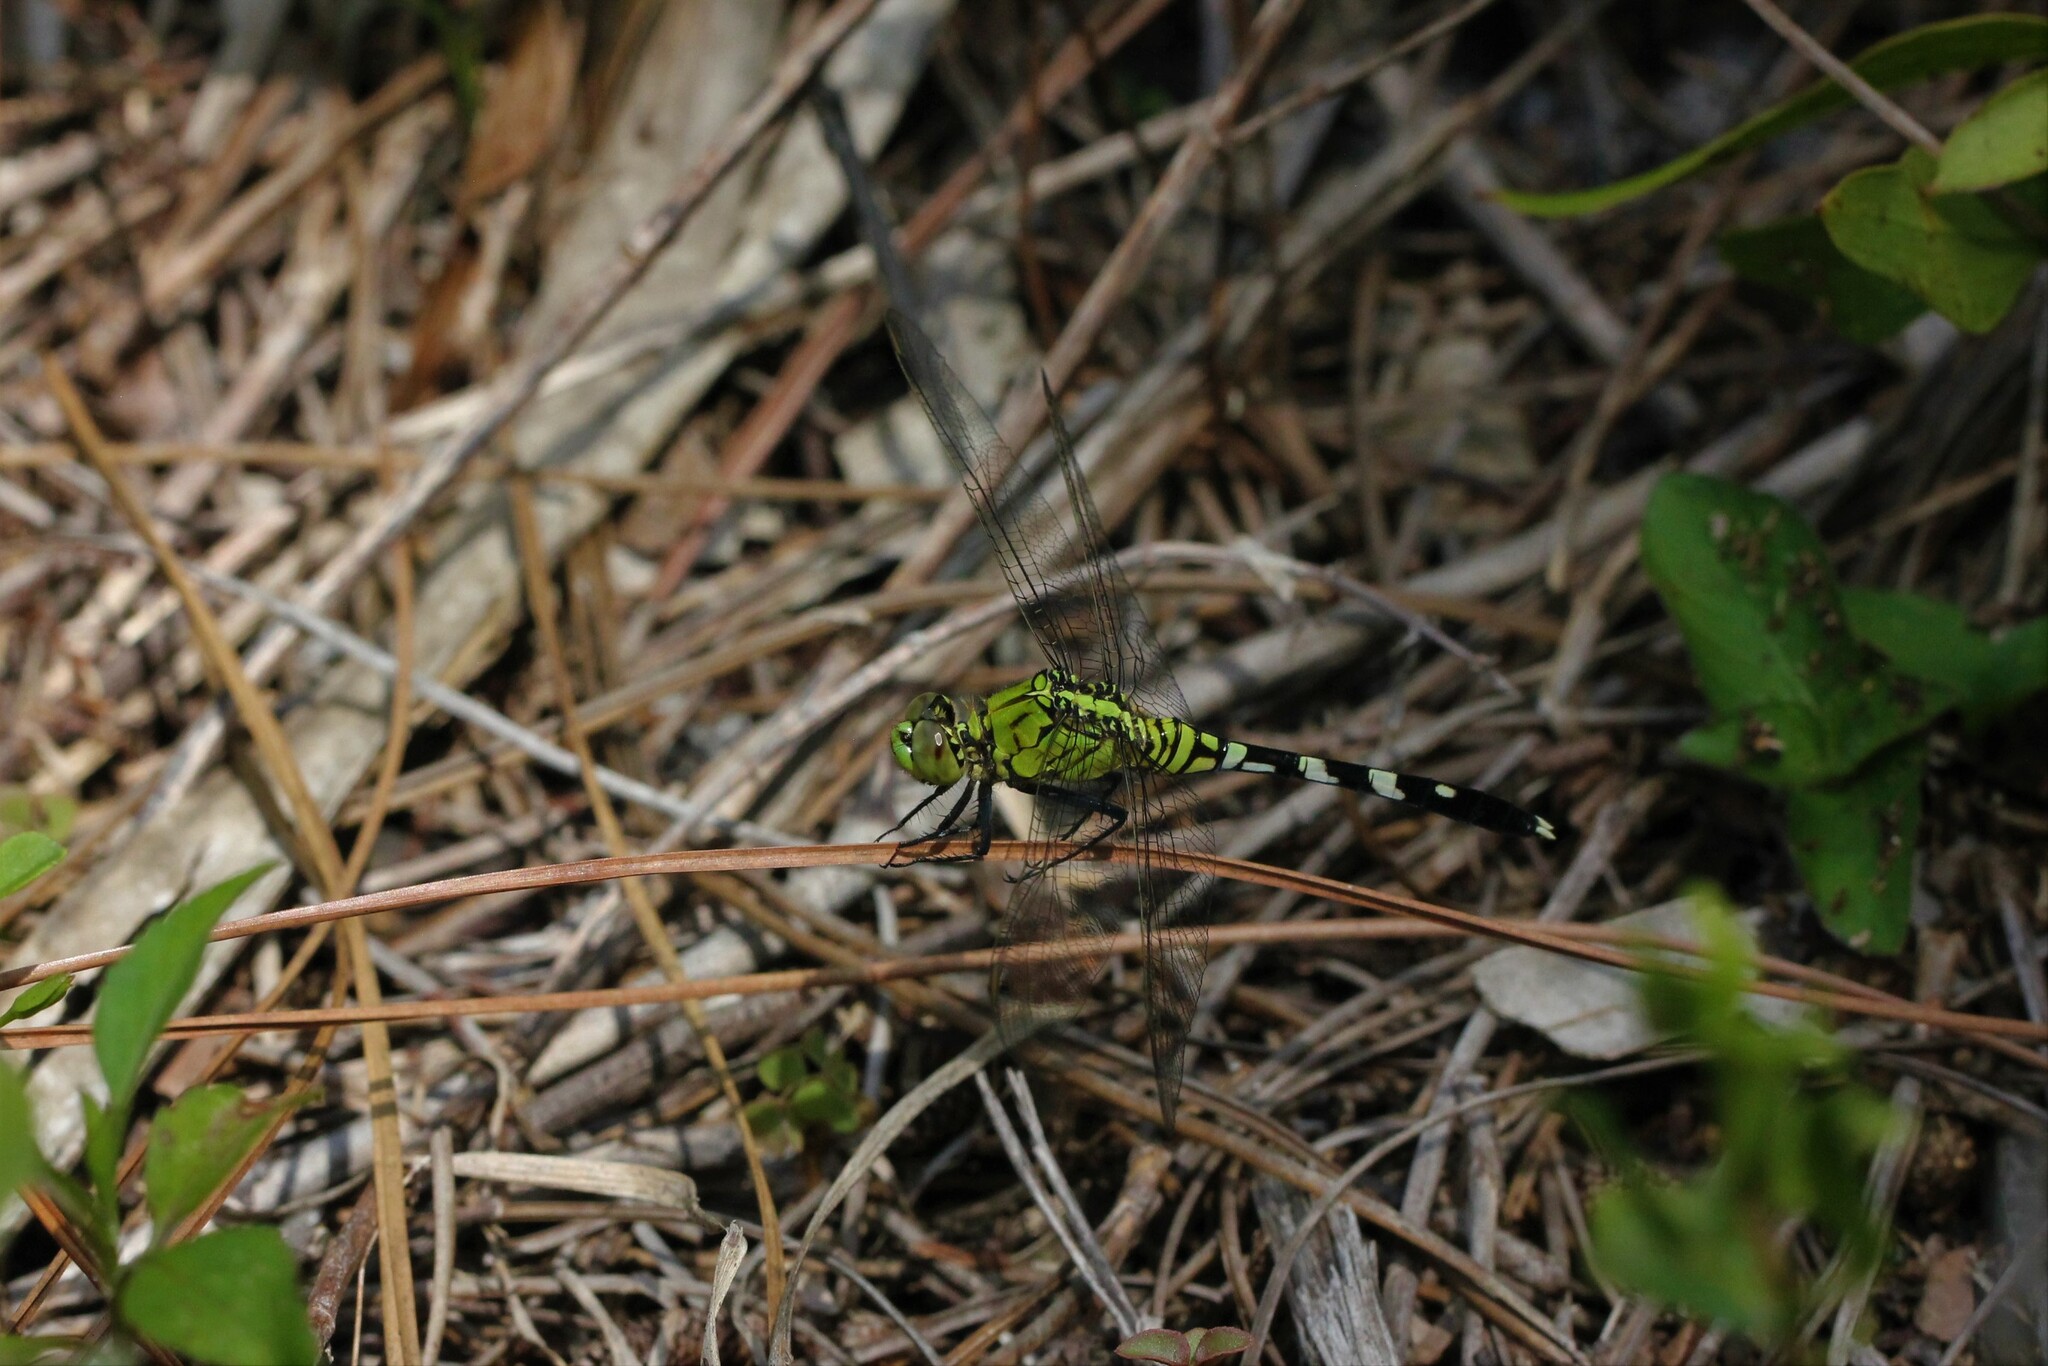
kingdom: Animalia
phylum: Arthropoda
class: Insecta
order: Odonata
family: Libellulidae
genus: Erythemis
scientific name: Erythemis simplicicollis
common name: Eastern pondhawk
